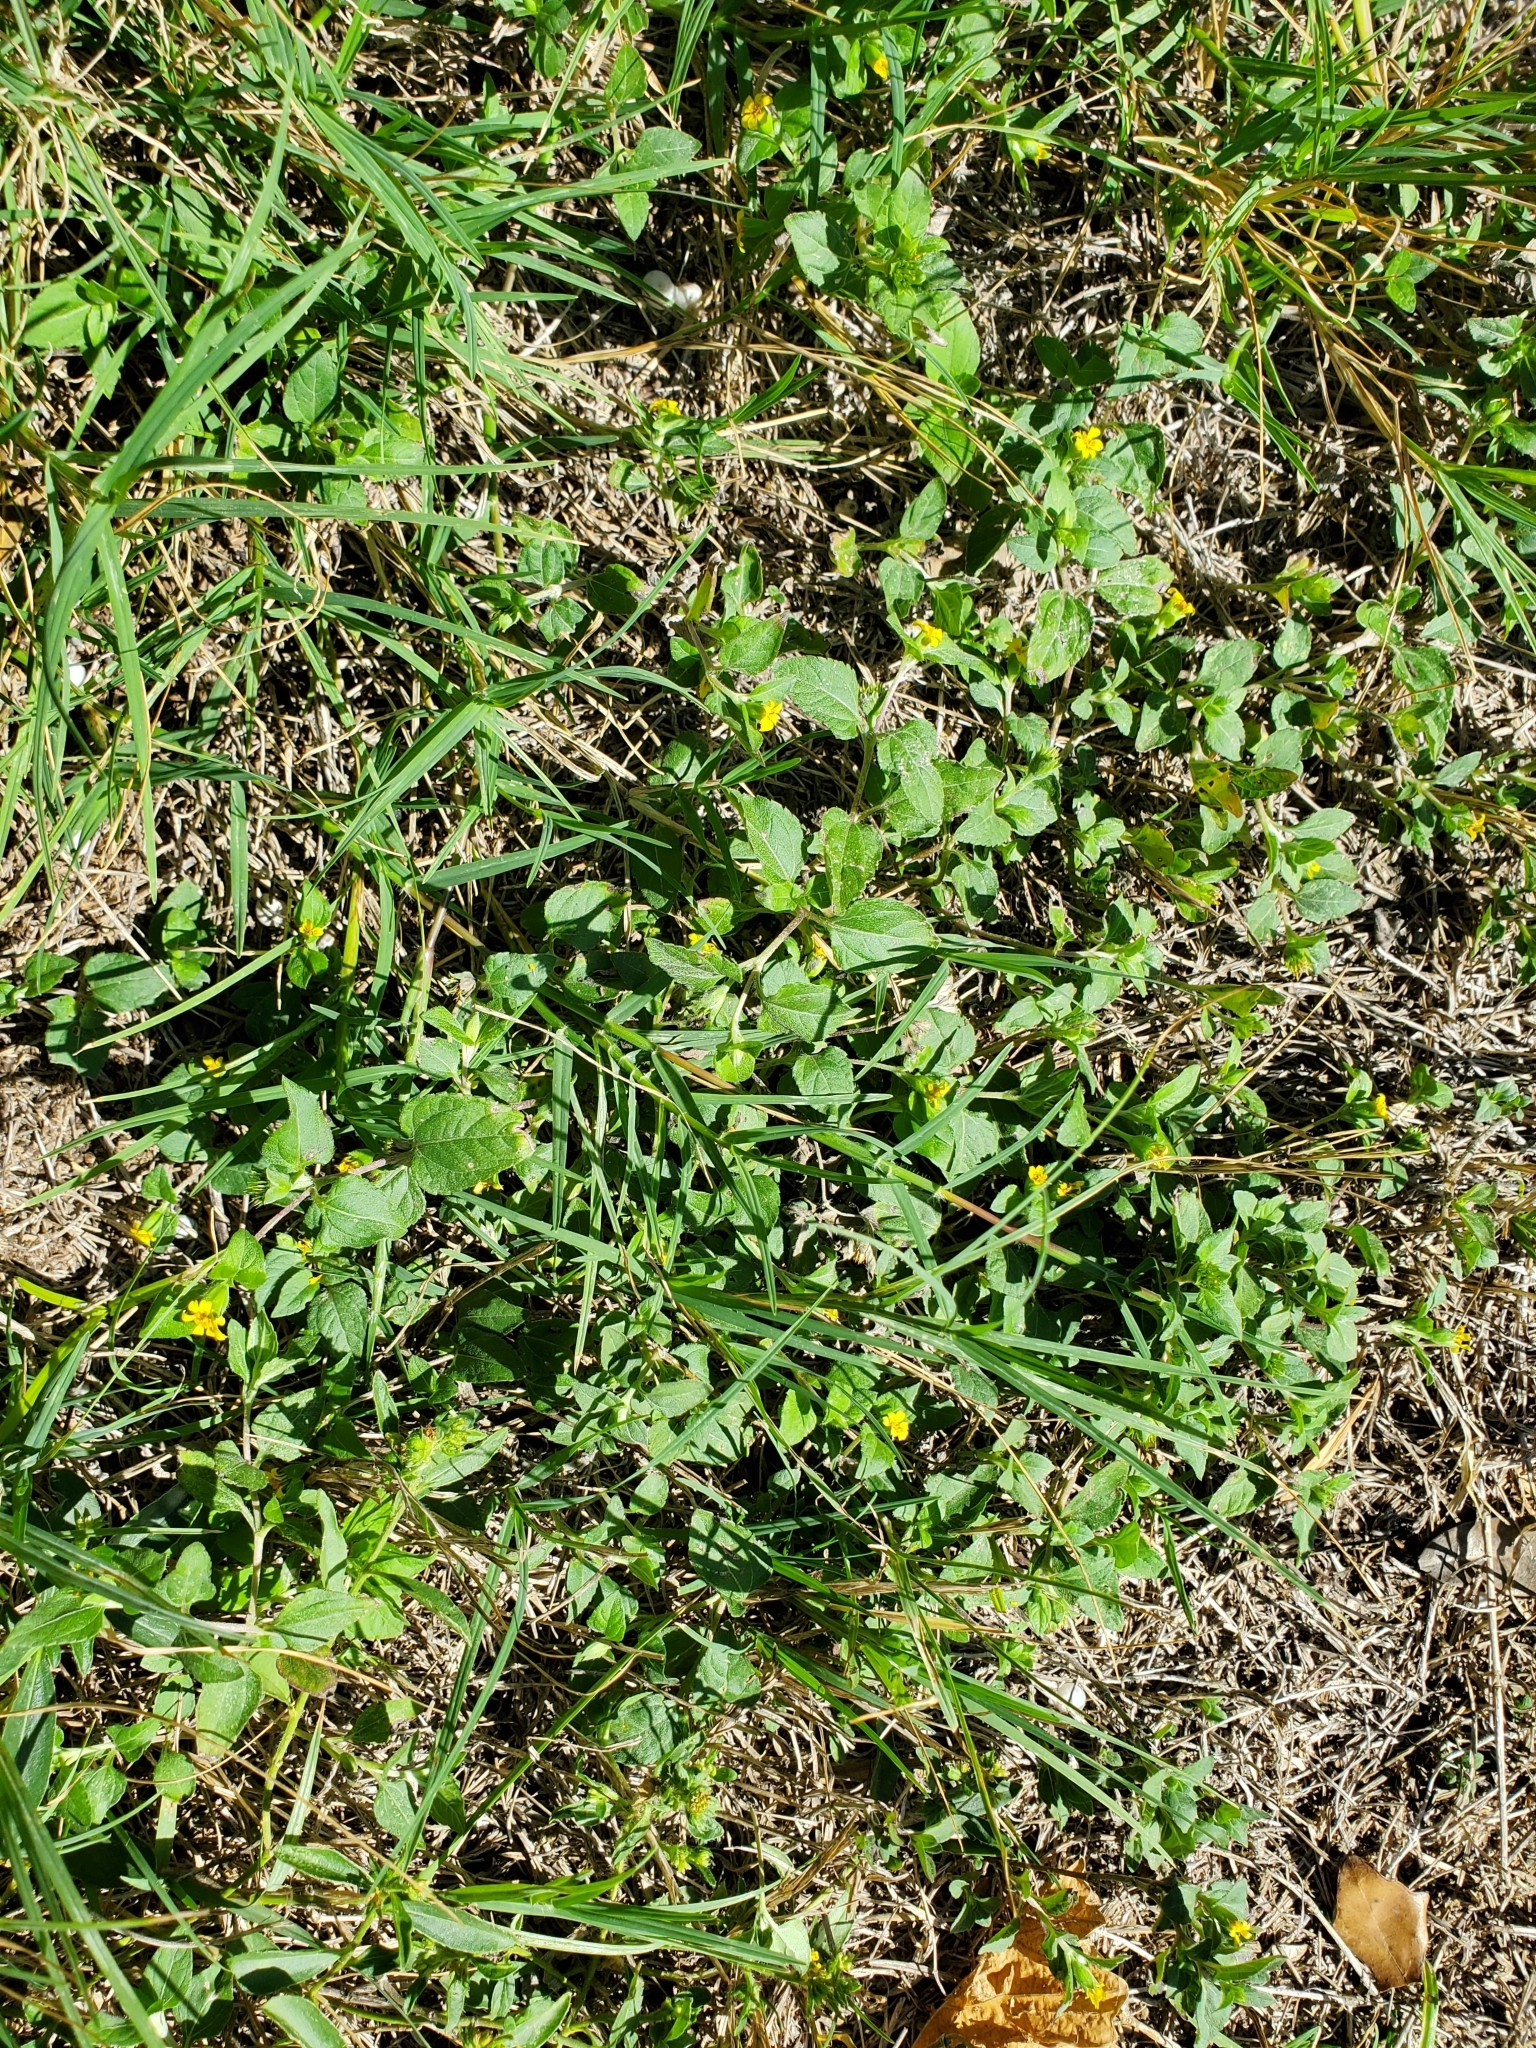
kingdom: Plantae
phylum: Tracheophyta
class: Magnoliopsida
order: Asterales
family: Asteraceae
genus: Calyptocarpus
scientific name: Calyptocarpus vialis
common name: Straggler daisy
